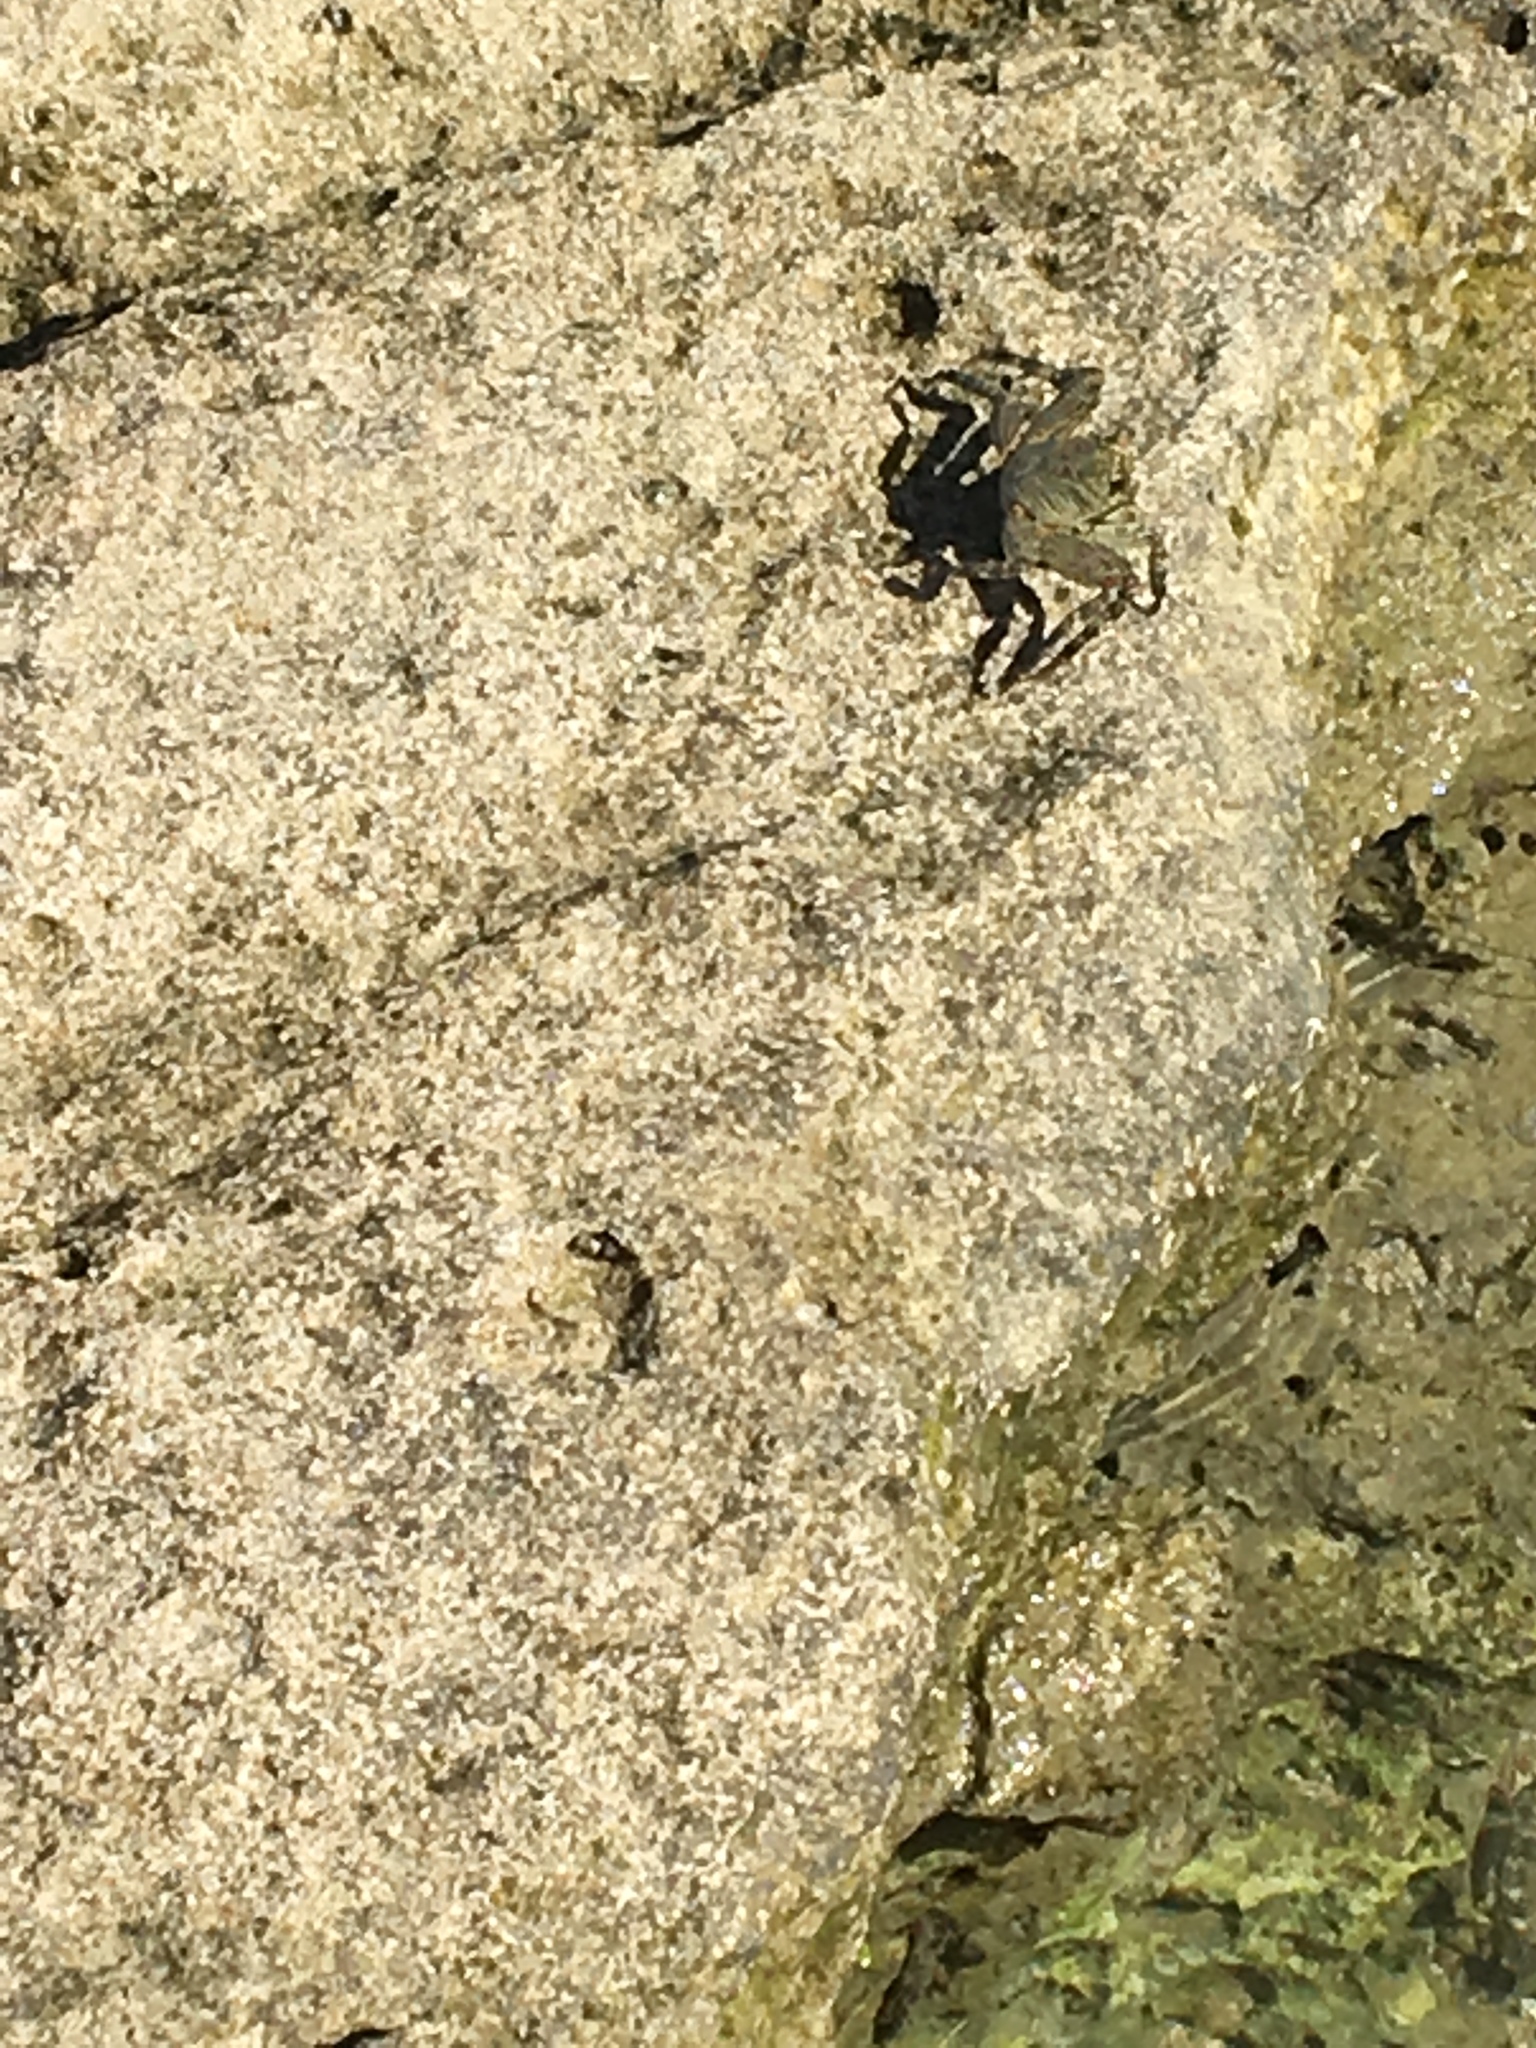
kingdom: Animalia
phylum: Arthropoda
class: Malacostraca
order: Decapoda
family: Grapsidae
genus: Grapsus
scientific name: Grapsus tenuicrustatus
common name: Natal lightfoot crab
